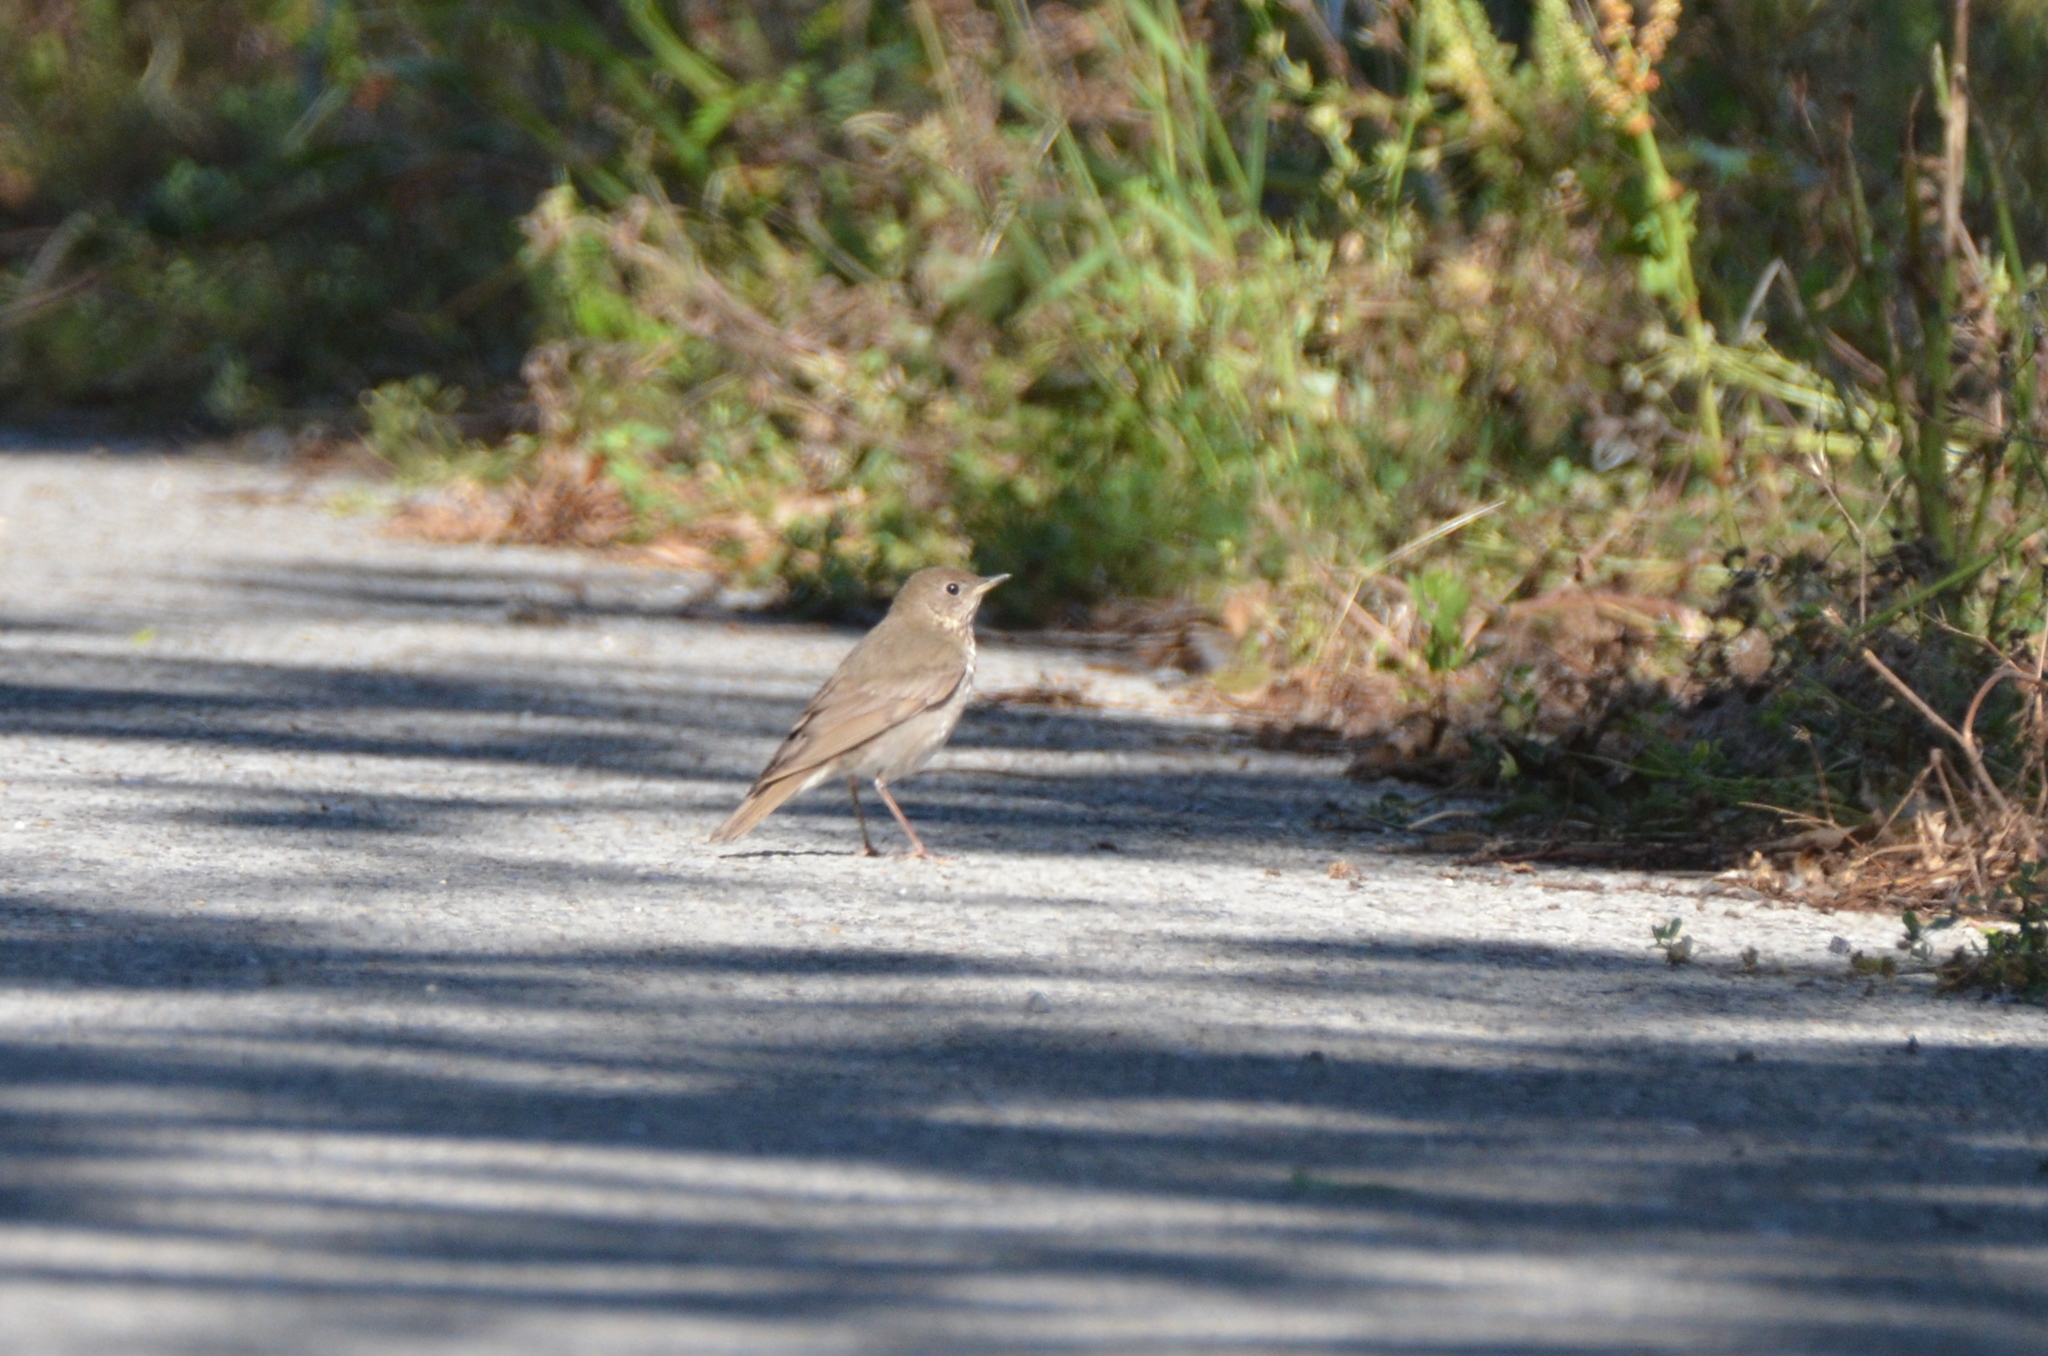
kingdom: Animalia
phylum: Chordata
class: Aves
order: Passeriformes
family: Turdidae
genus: Catharus
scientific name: Catharus minimus
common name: Grey-cheeked thrush
